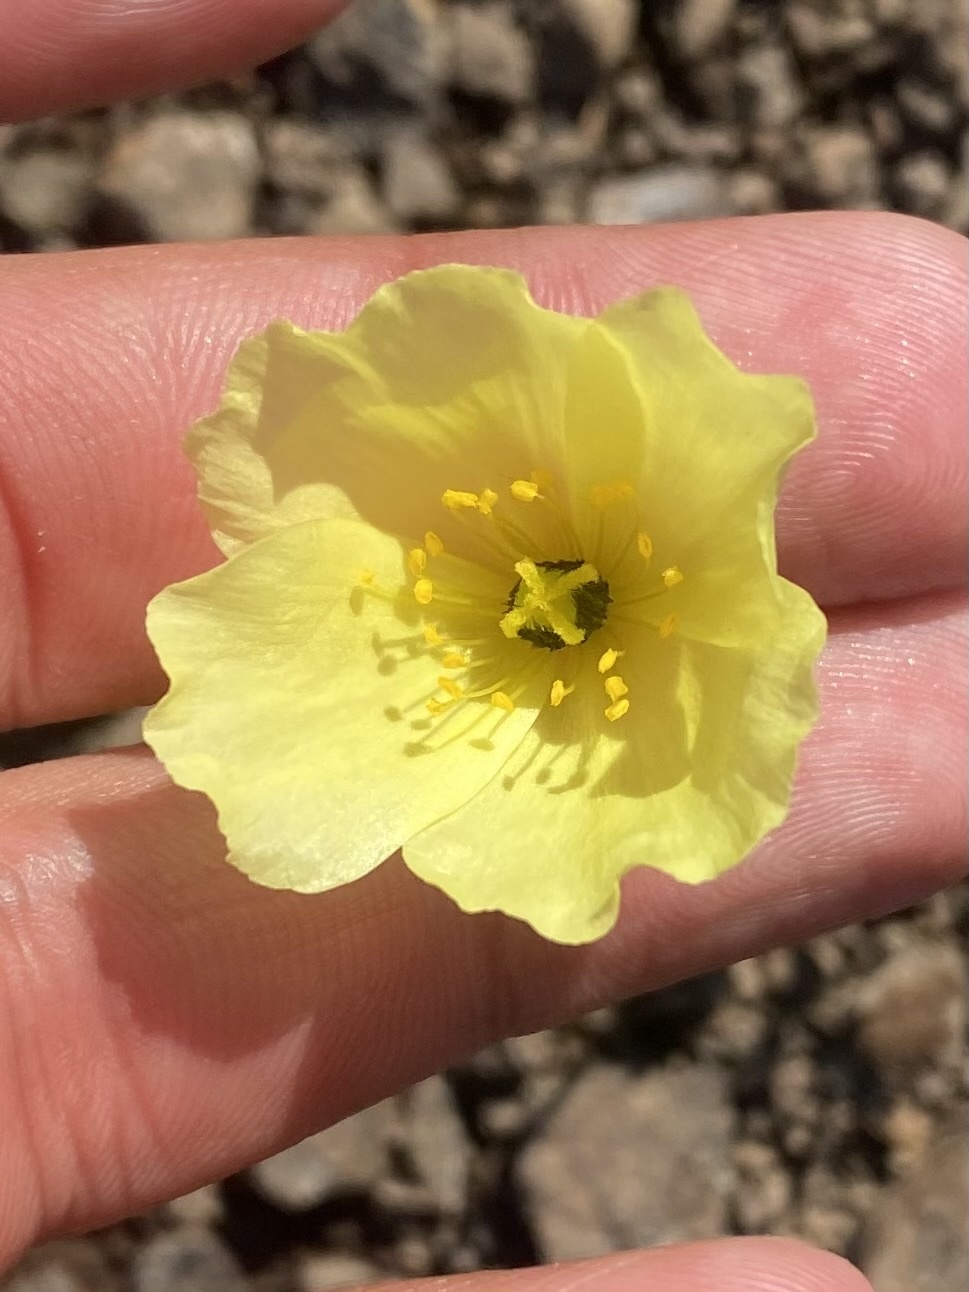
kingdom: Plantae
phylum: Tracheophyta
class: Magnoliopsida
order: Ranunculales
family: Papaveraceae
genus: Papaver
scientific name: Papaver lapponicum
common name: Lapland poppy
